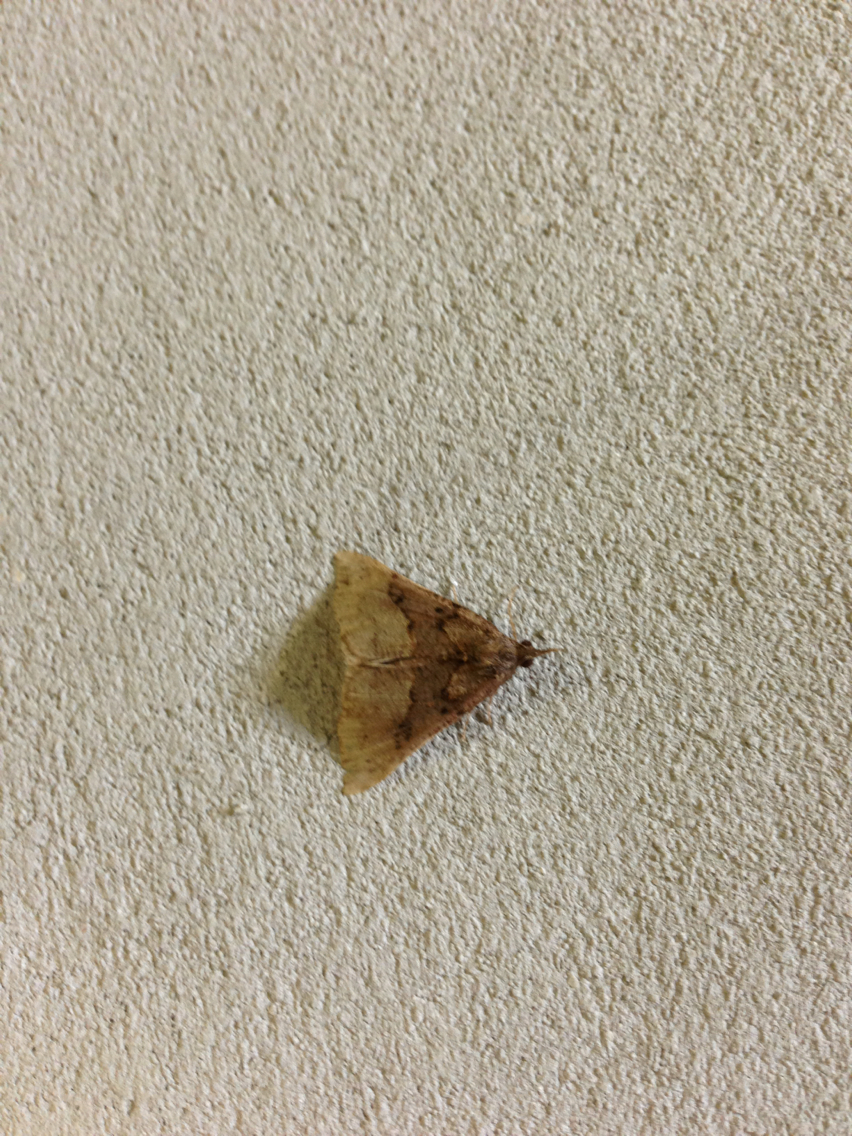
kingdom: Animalia
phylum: Arthropoda
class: Insecta
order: Lepidoptera
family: Erebidae
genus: Hypena
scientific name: Hypena edictalis
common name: Large snout
